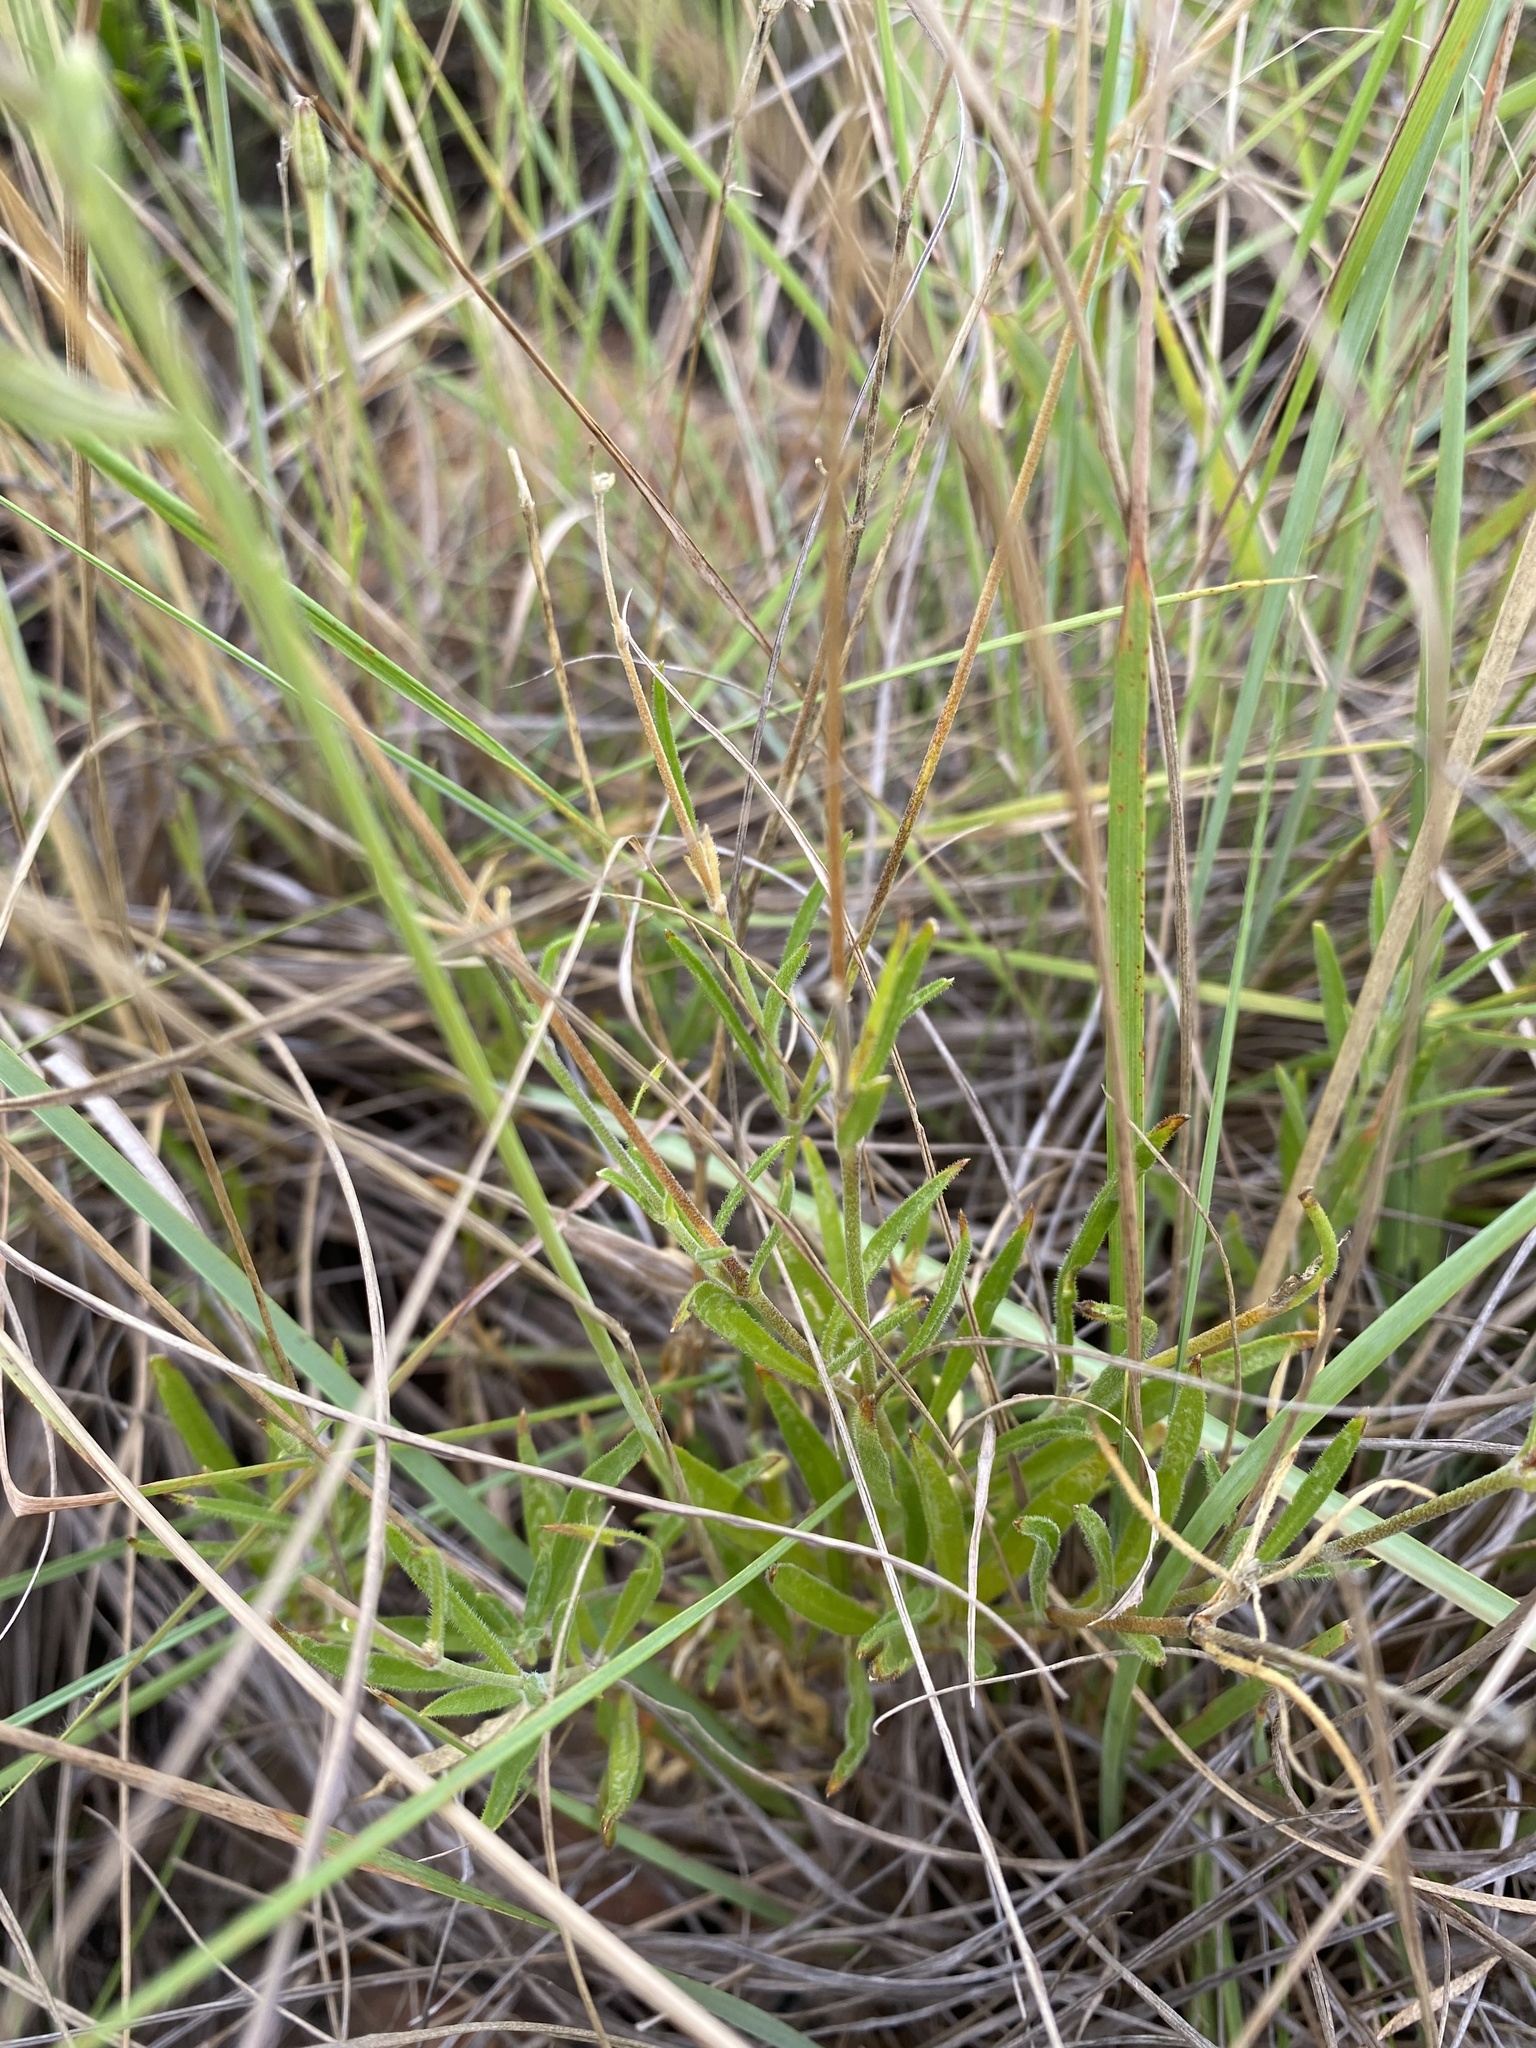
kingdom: Plantae
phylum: Tracheophyta
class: Magnoliopsida
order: Caryophyllales
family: Caryophyllaceae
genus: Silene
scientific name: Silene burchellii
